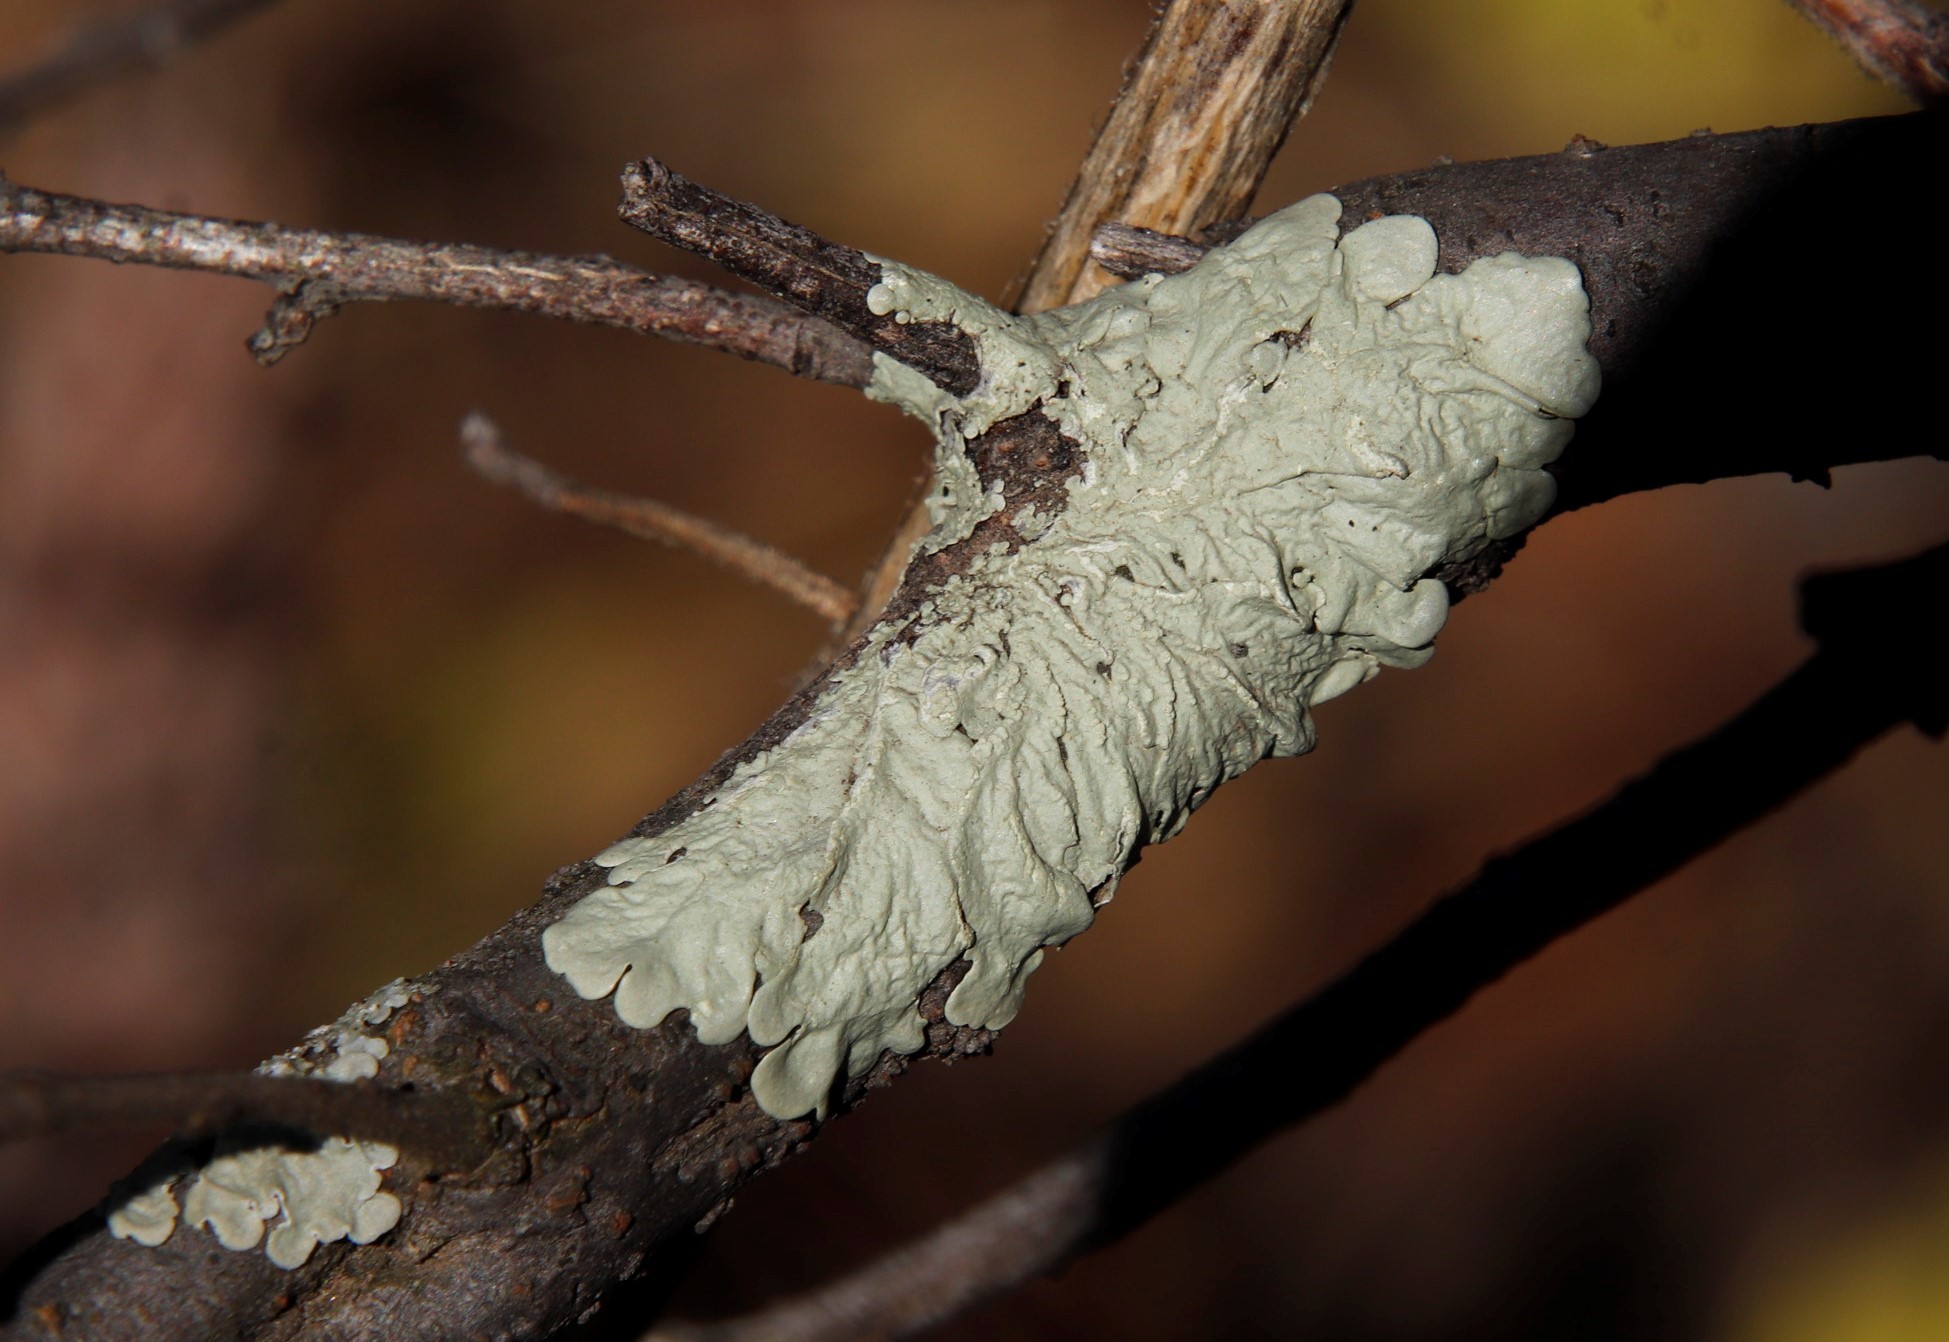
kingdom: Fungi
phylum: Ascomycota
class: Lecanoromycetes
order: Lecanorales
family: Parmeliaceae
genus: Flavoparmelia
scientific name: Flavoparmelia soredians
